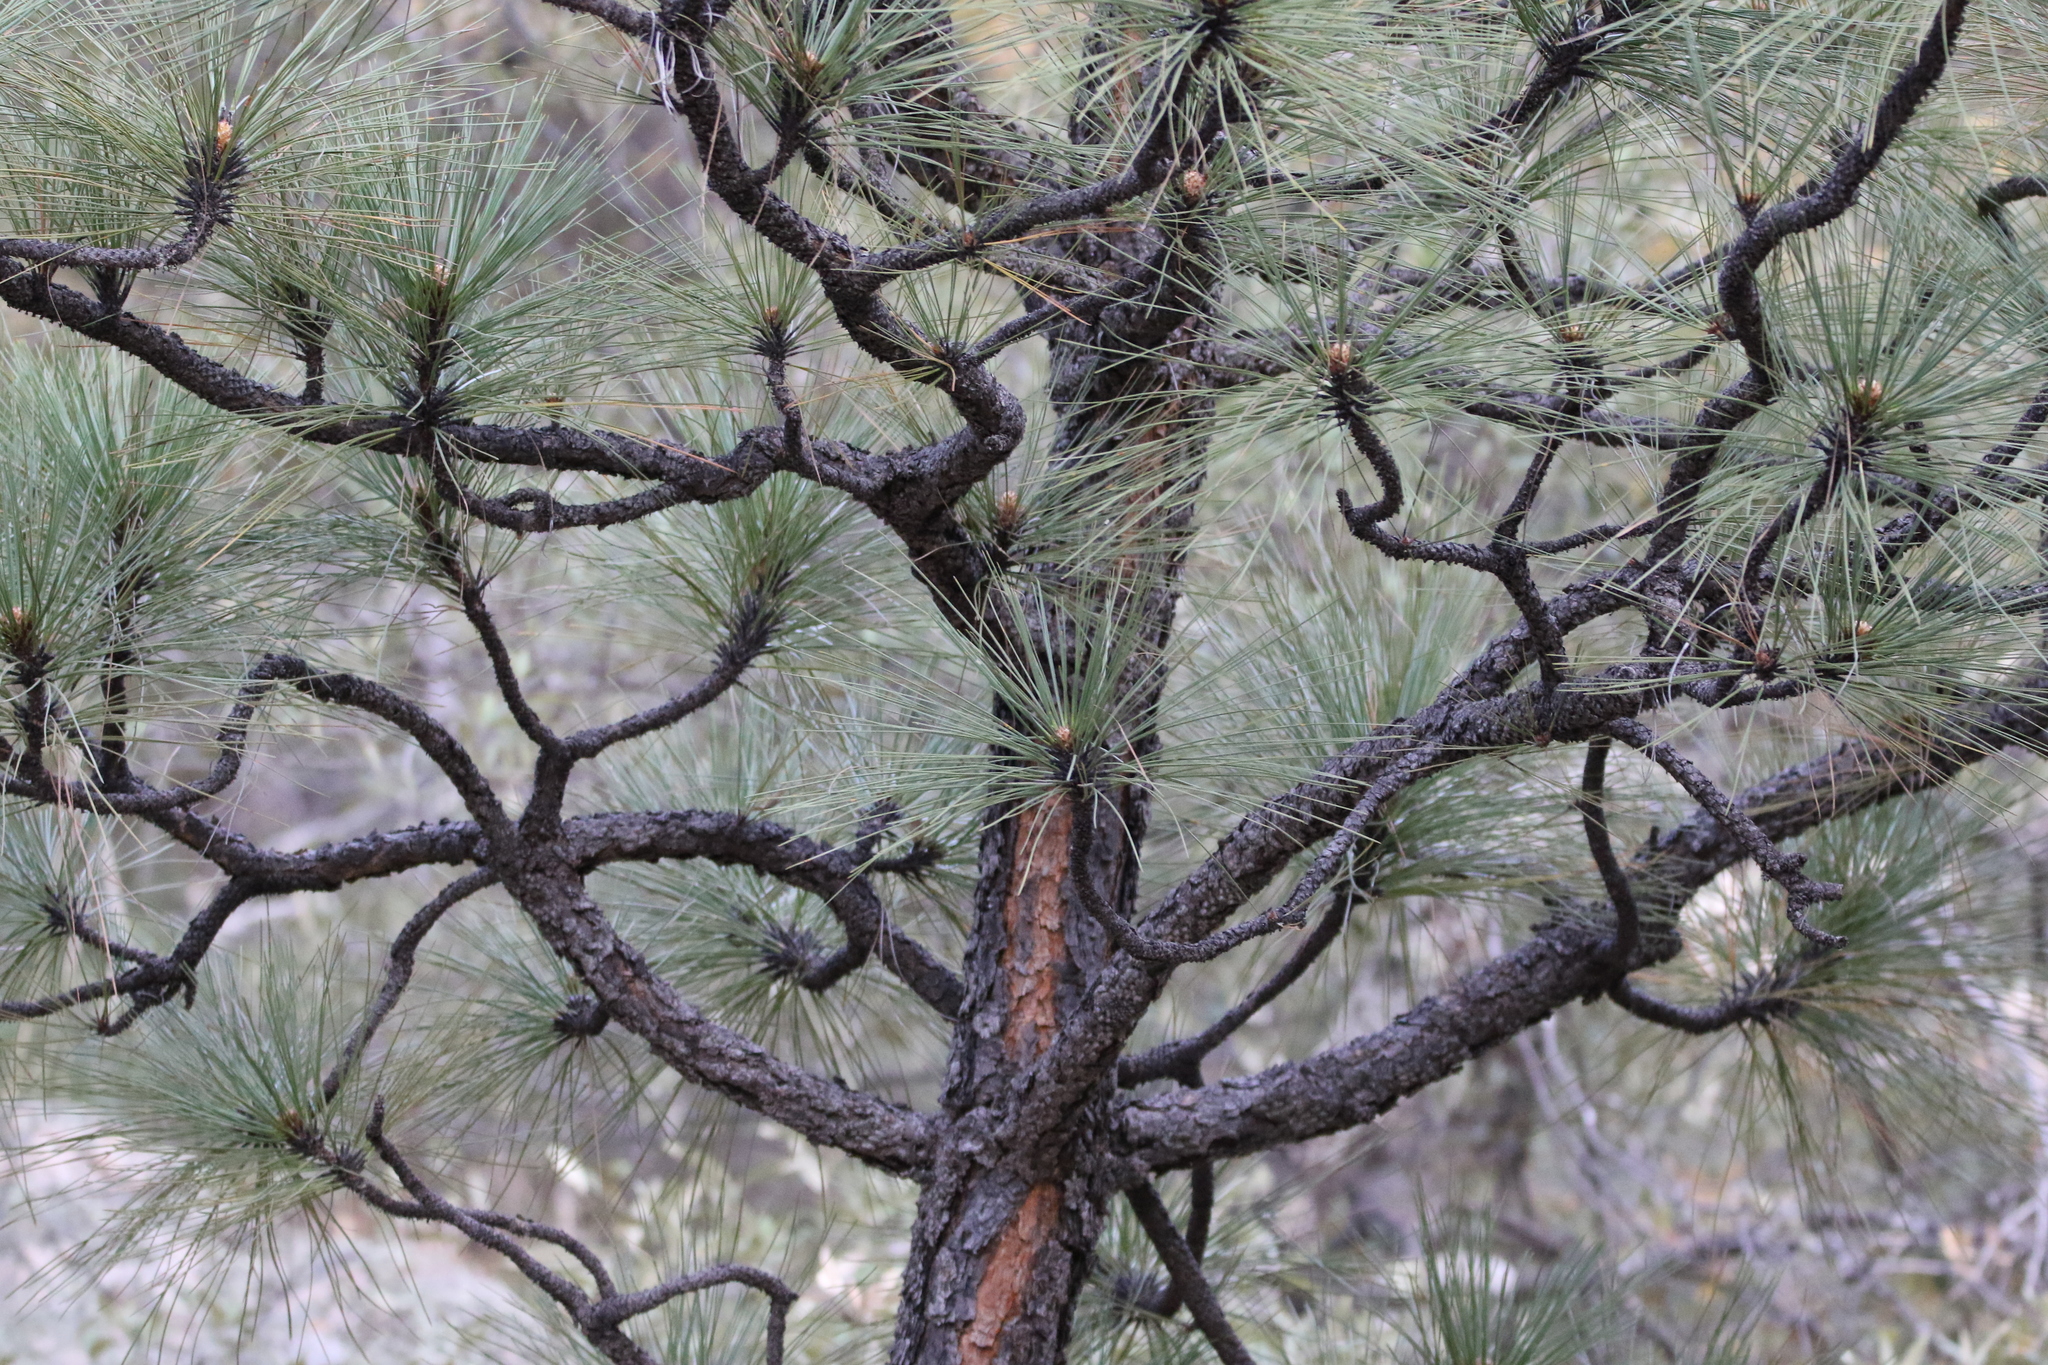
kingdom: Plantae
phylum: Tracheophyta
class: Pinopsida
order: Pinales
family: Pinaceae
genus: Pinus
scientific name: Pinus engelmannii
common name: Apache pine
